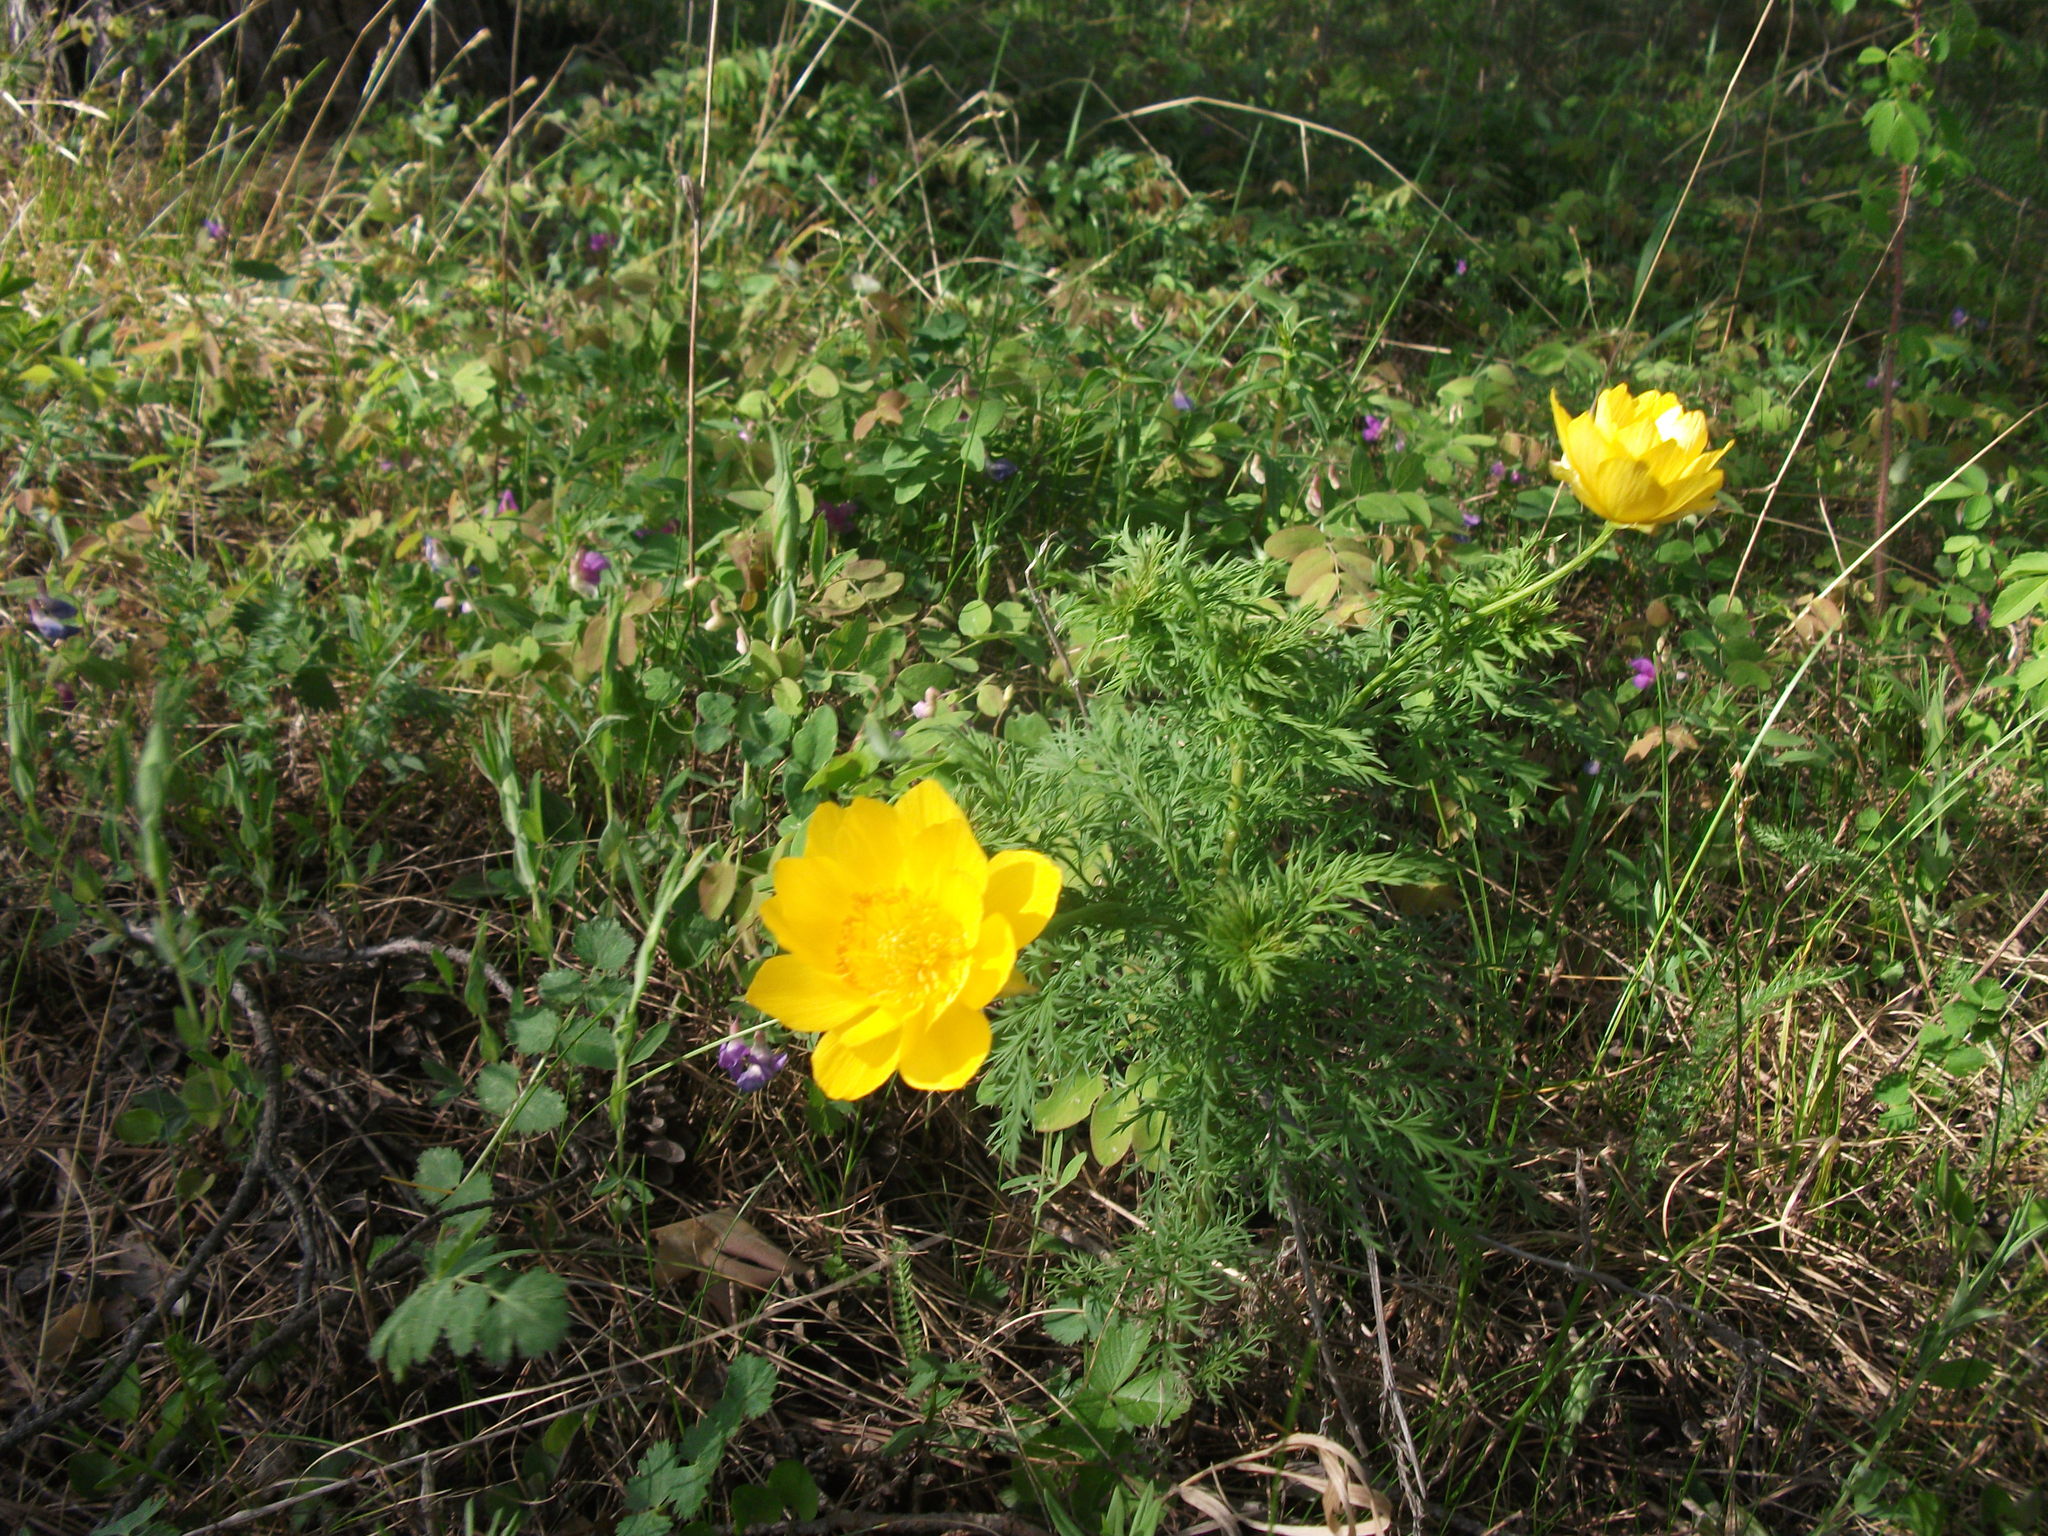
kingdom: Plantae
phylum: Tracheophyta
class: Magnoliopsida
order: Ranunculales
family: Ranunculaceae
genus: Adonis
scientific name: Adonis
